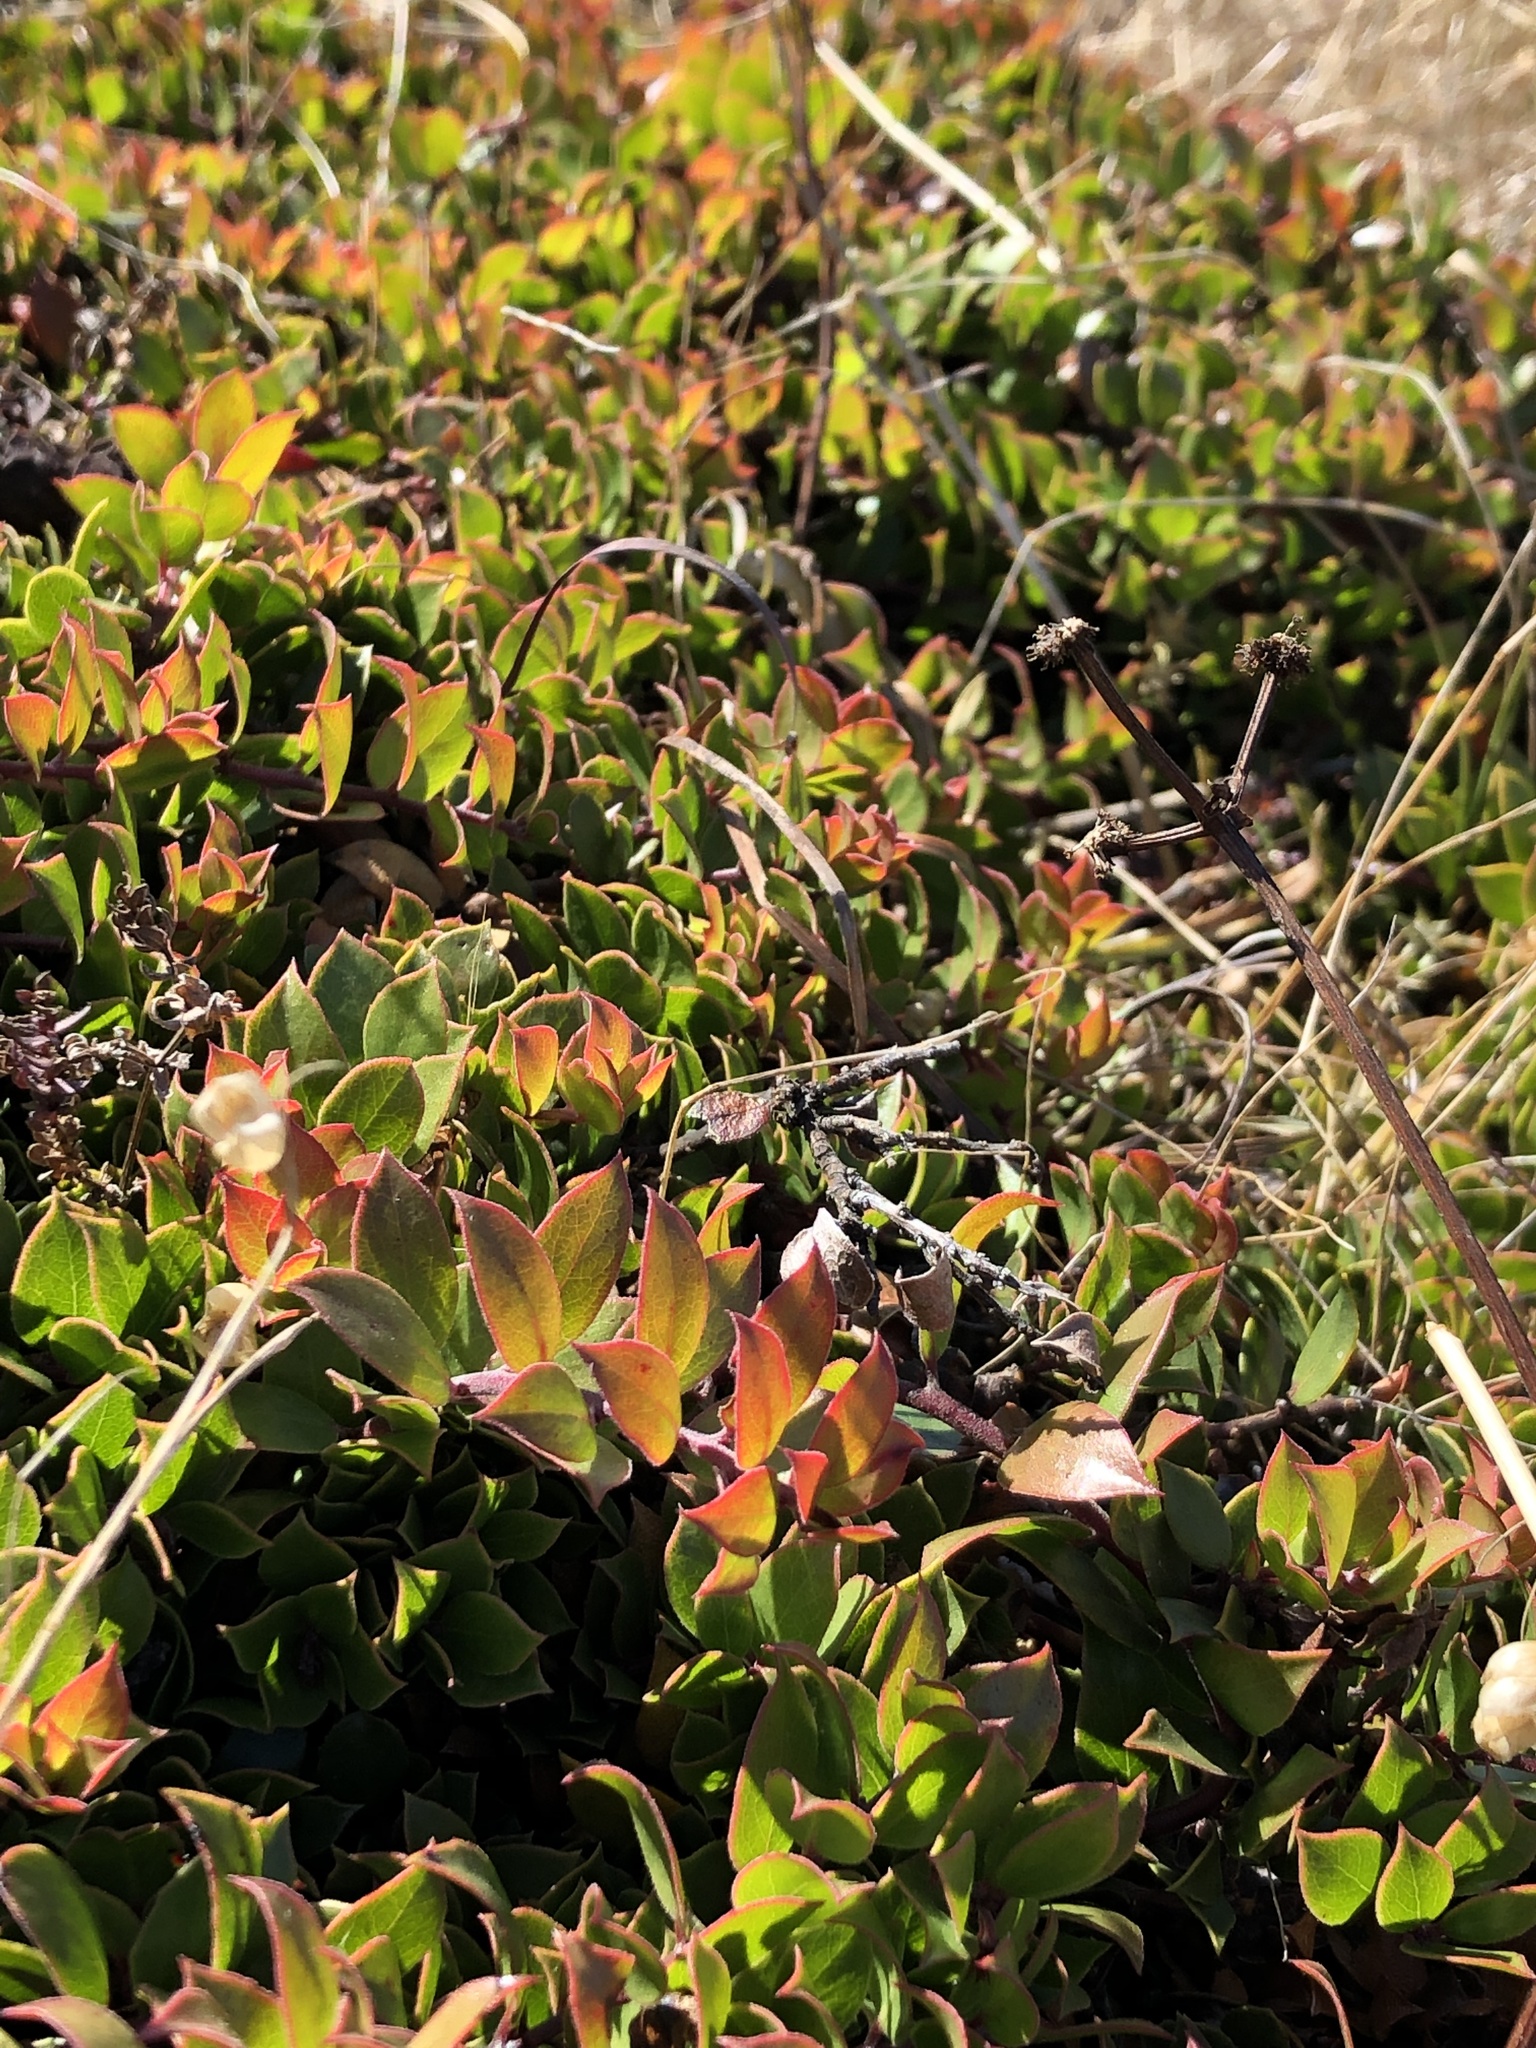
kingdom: Plantae
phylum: Tracheophyta
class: Magnoliopsida
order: Ericales
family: Ericaceae
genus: Arctostaphylos
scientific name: Arctostaphylos hookeri
